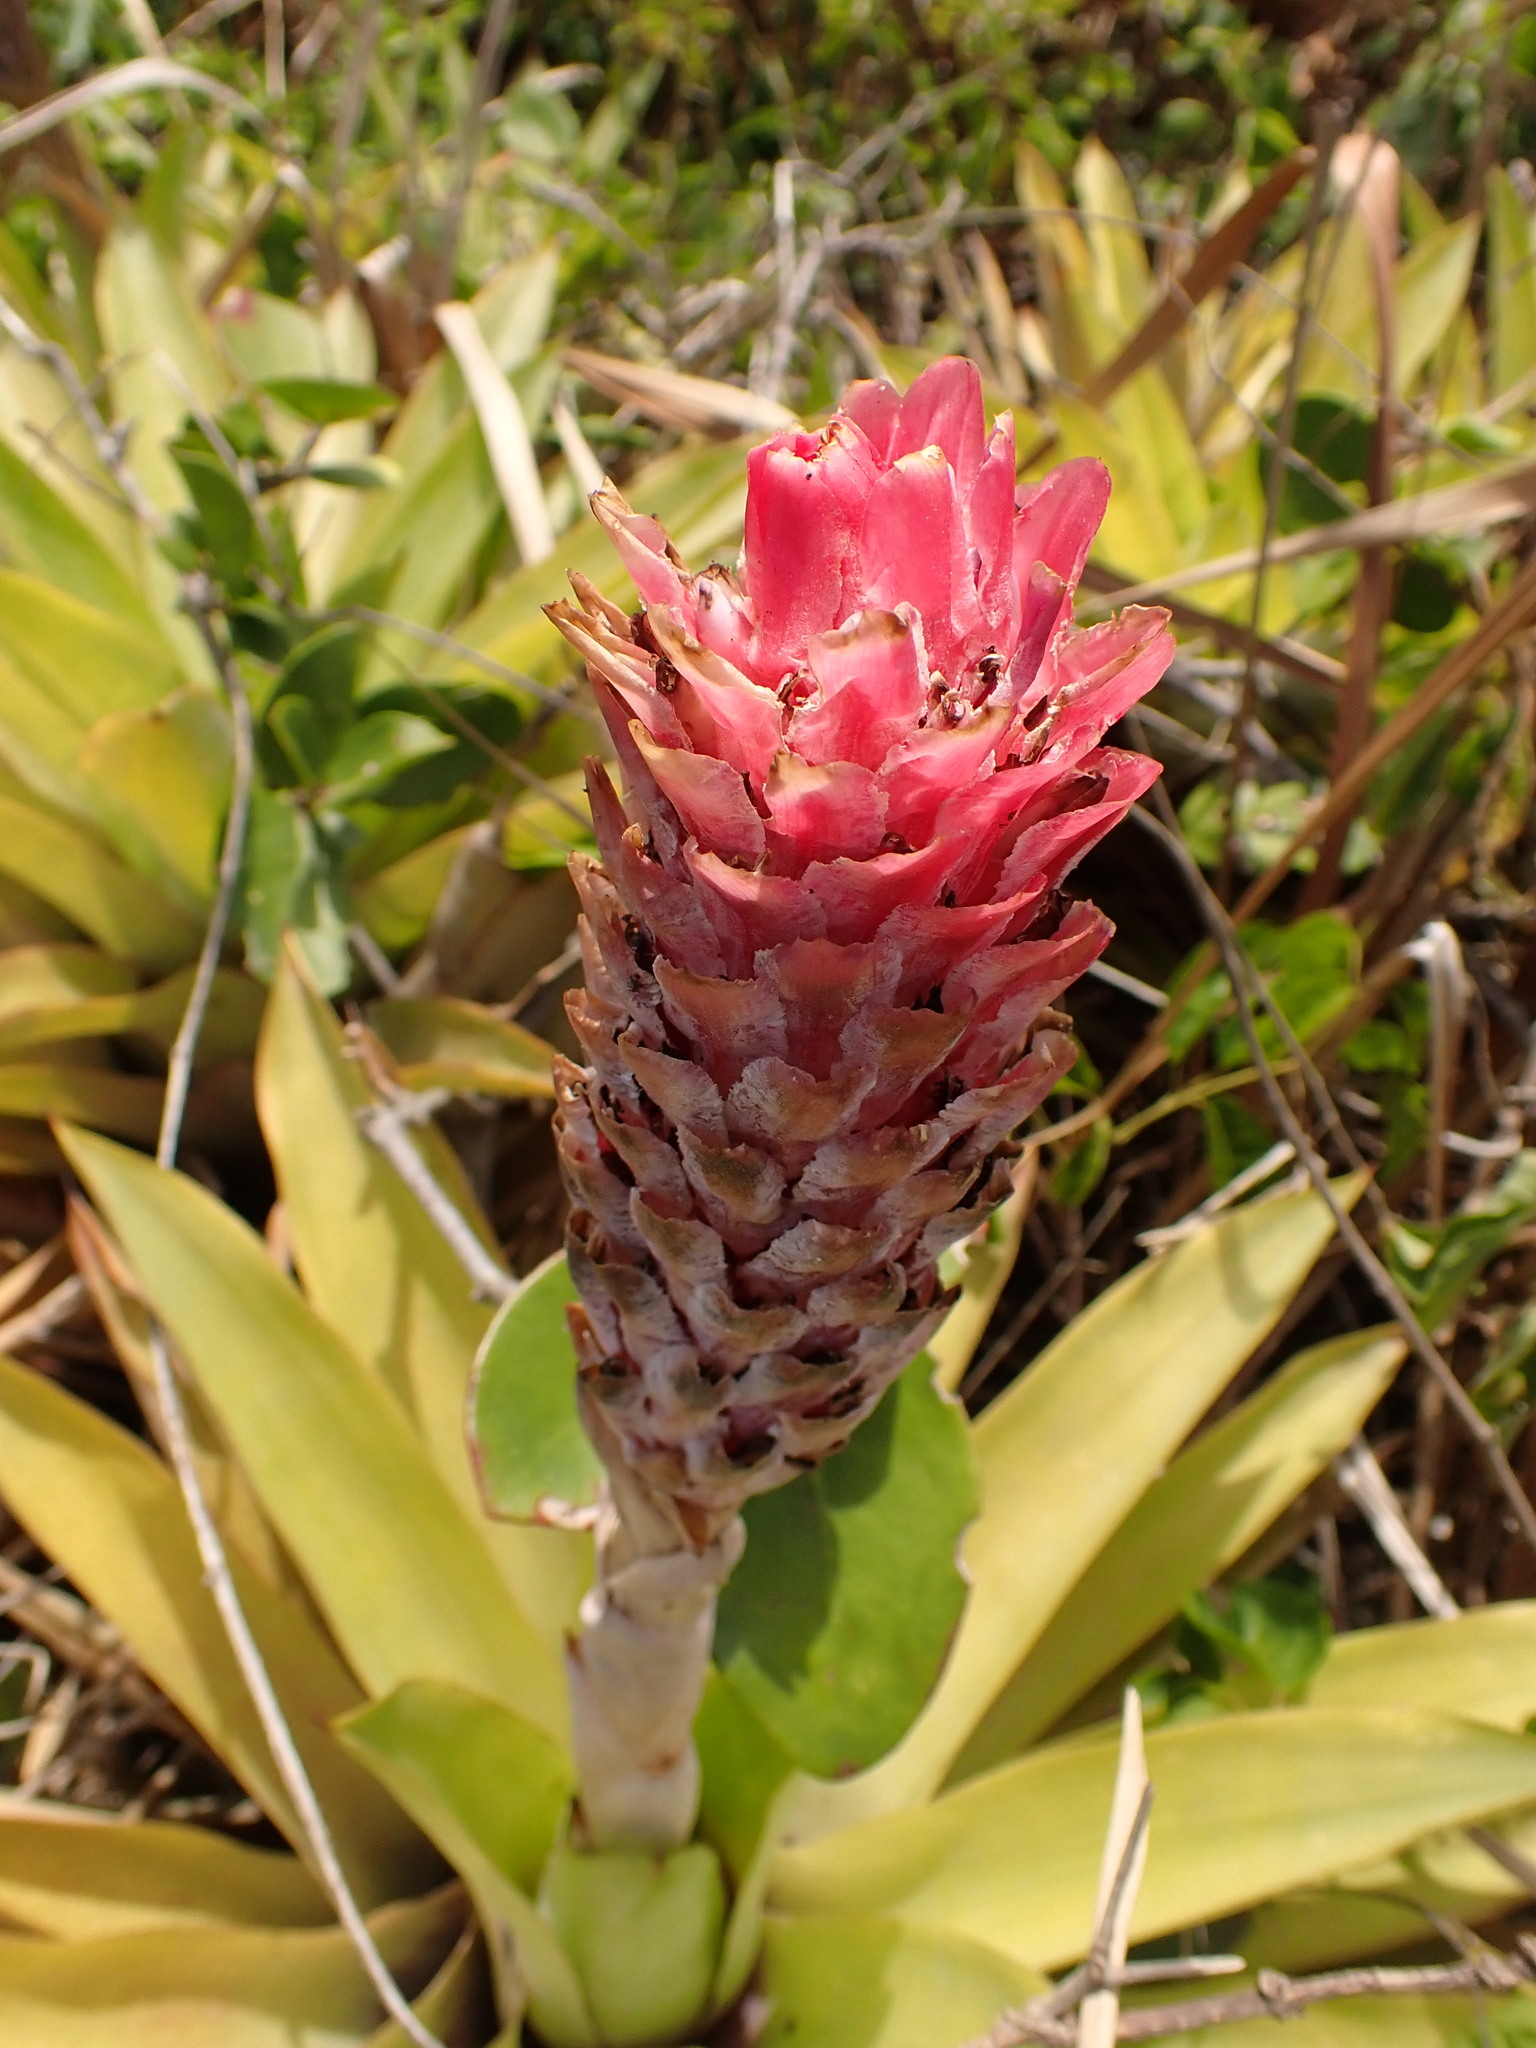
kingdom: Plantae
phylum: Tracheophyta
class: Liliopsida
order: Poales
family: Bromeliaceae
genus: Quesnelia
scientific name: Quesnelia quesneliana
